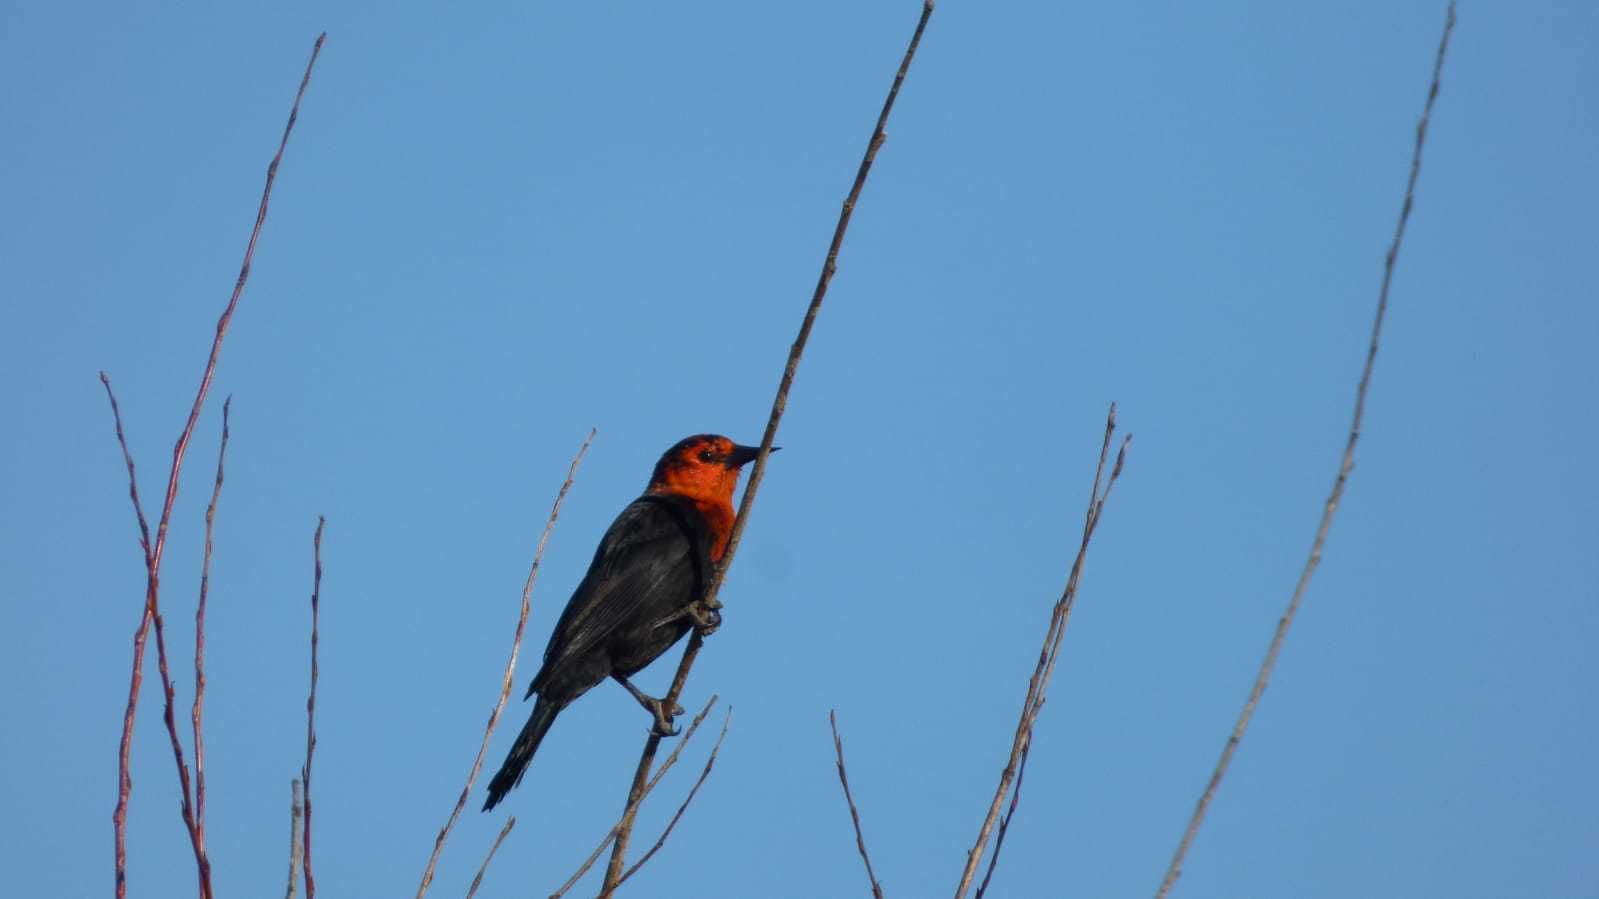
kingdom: Animalia
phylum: Chordata
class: Aves
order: Passeriformes
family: Icteridae
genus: Amblyramphus
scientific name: Amblyramphus holosericeus
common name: Scarlet-headed blackbird
